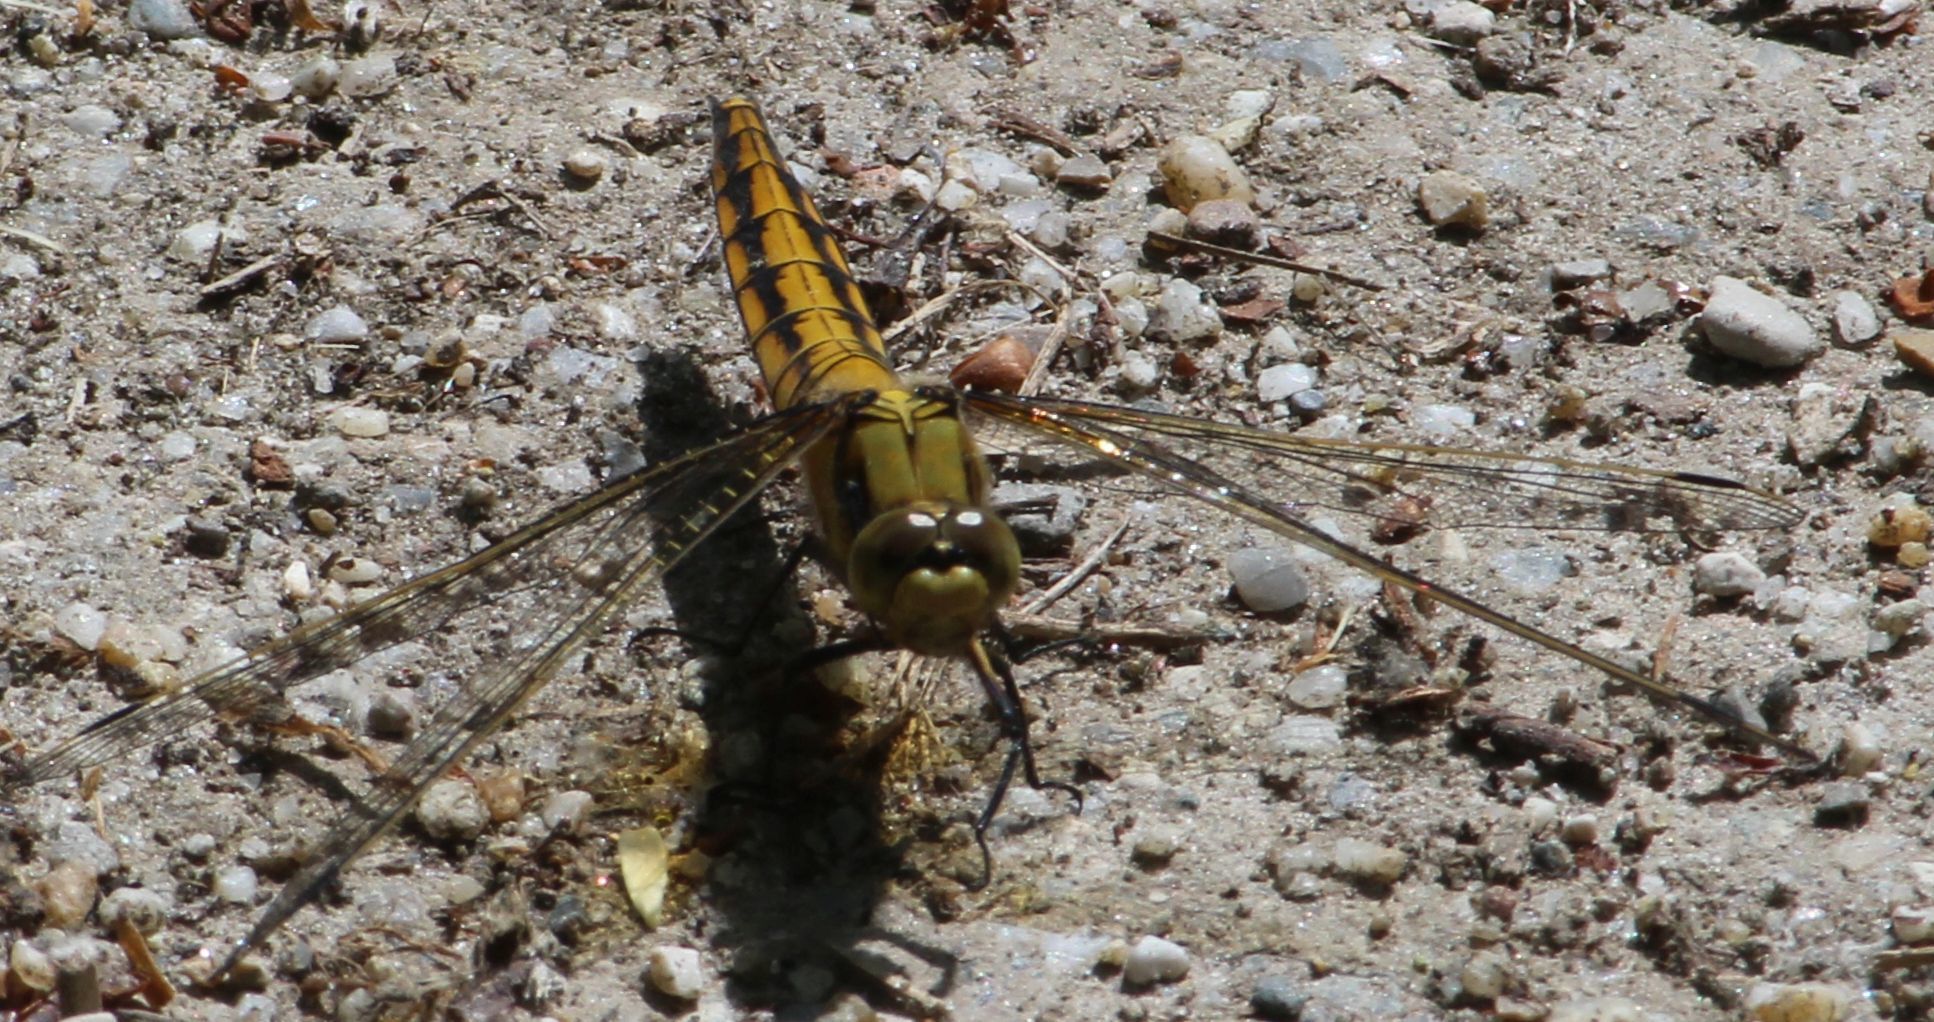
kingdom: Animalia
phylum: Arthropoda
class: Insecta
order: Odonata
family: Libellulidae
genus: Orthetrum
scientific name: Orthetrum cancellatum
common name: Black-tailed skimmer
